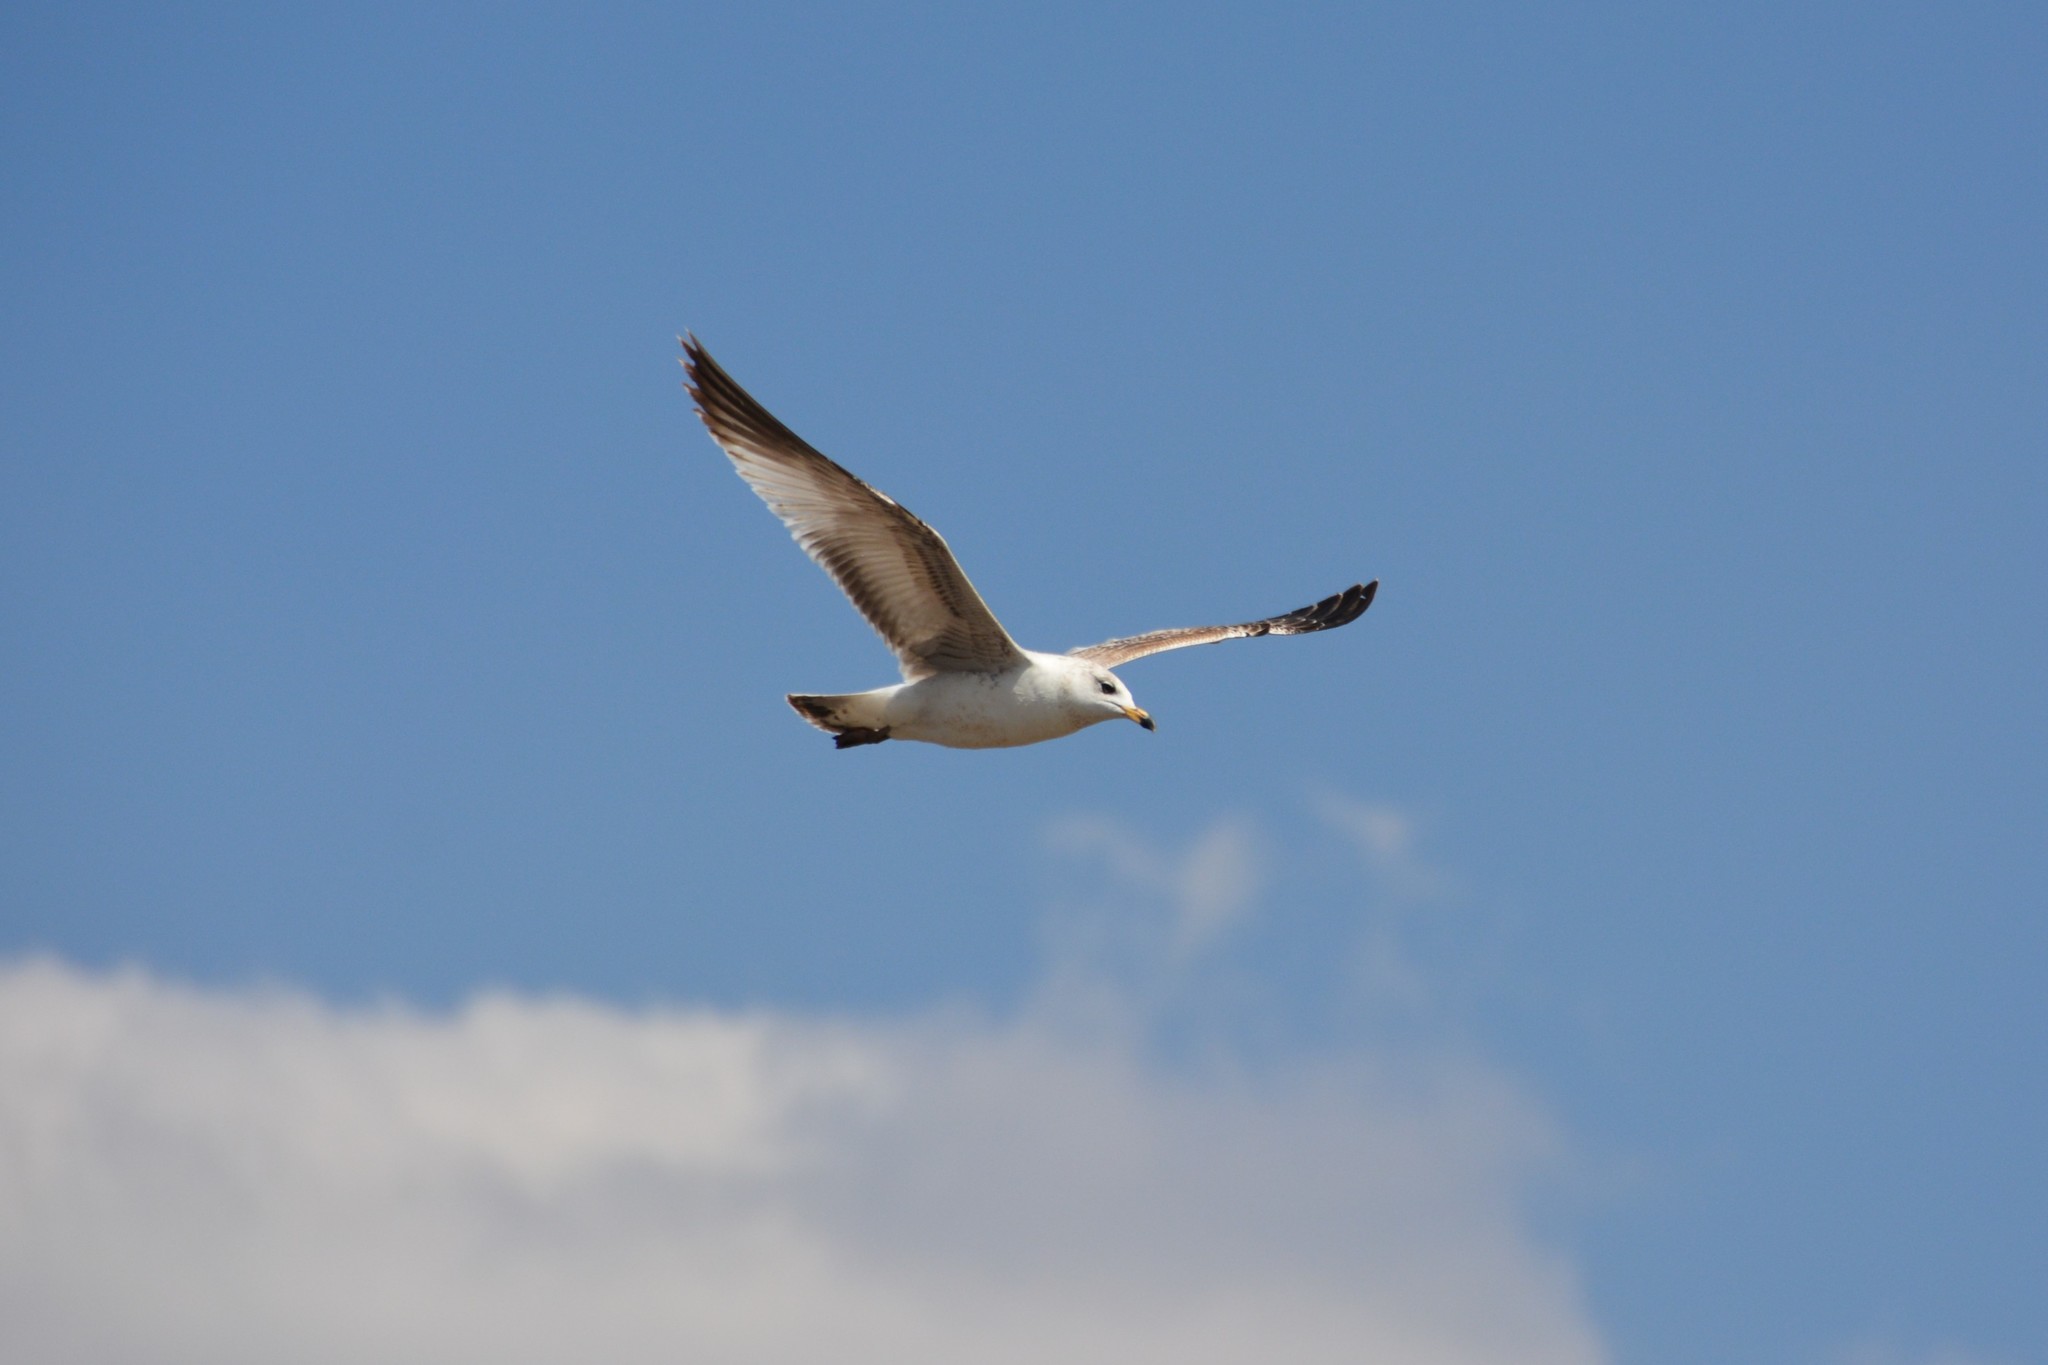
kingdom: Animalia
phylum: Chordata
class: Aves
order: Charadriiformes
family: Laridae
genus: Larus
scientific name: Larus delawarensis
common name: Ring-billed gull
